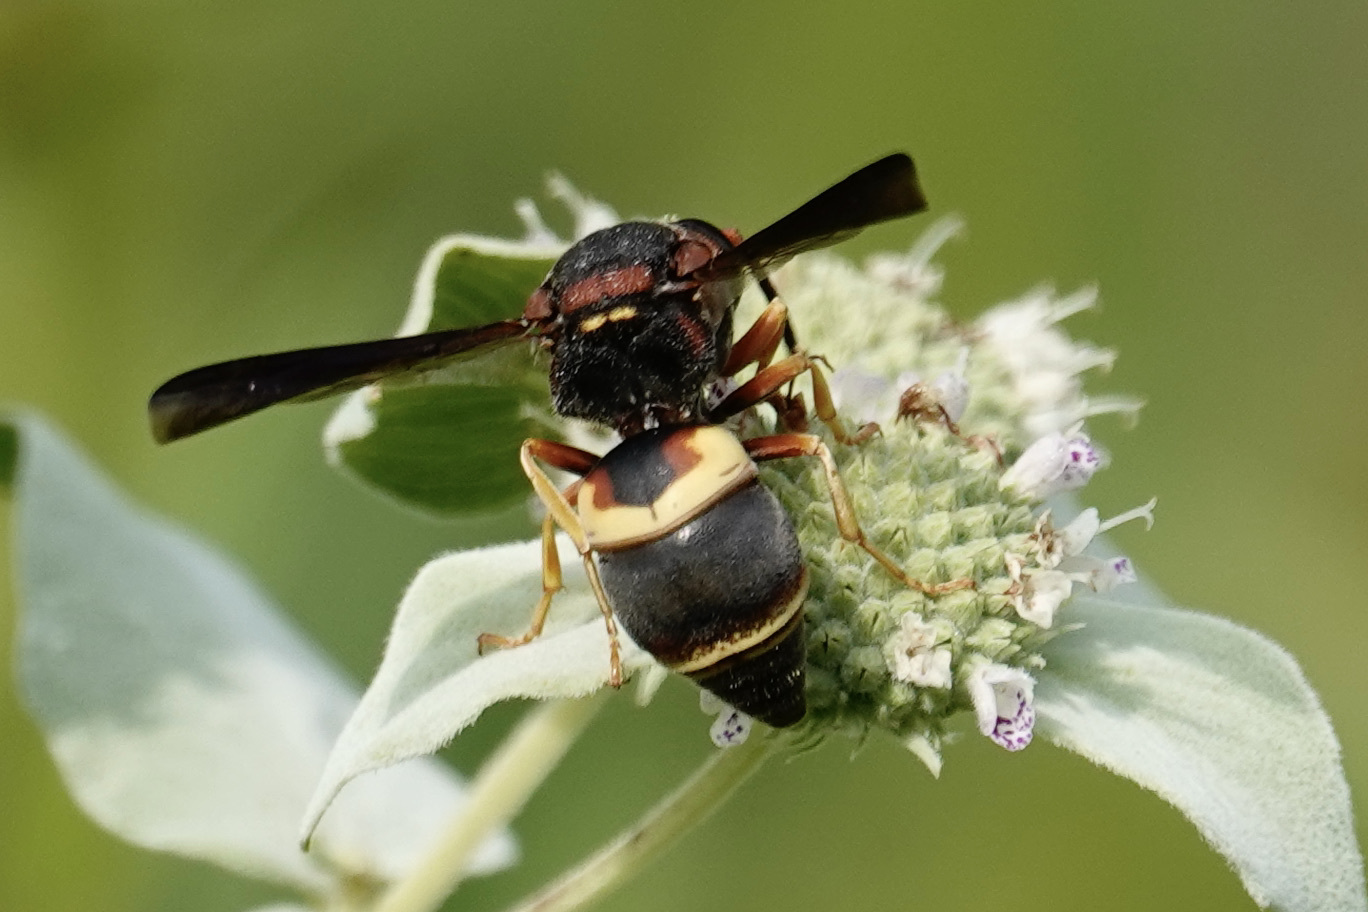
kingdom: Animalia
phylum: Arthropoda
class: Insecta
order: Hymenoptera
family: Eumenidae
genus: Euodynerus
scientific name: Euodynerus crypticus
